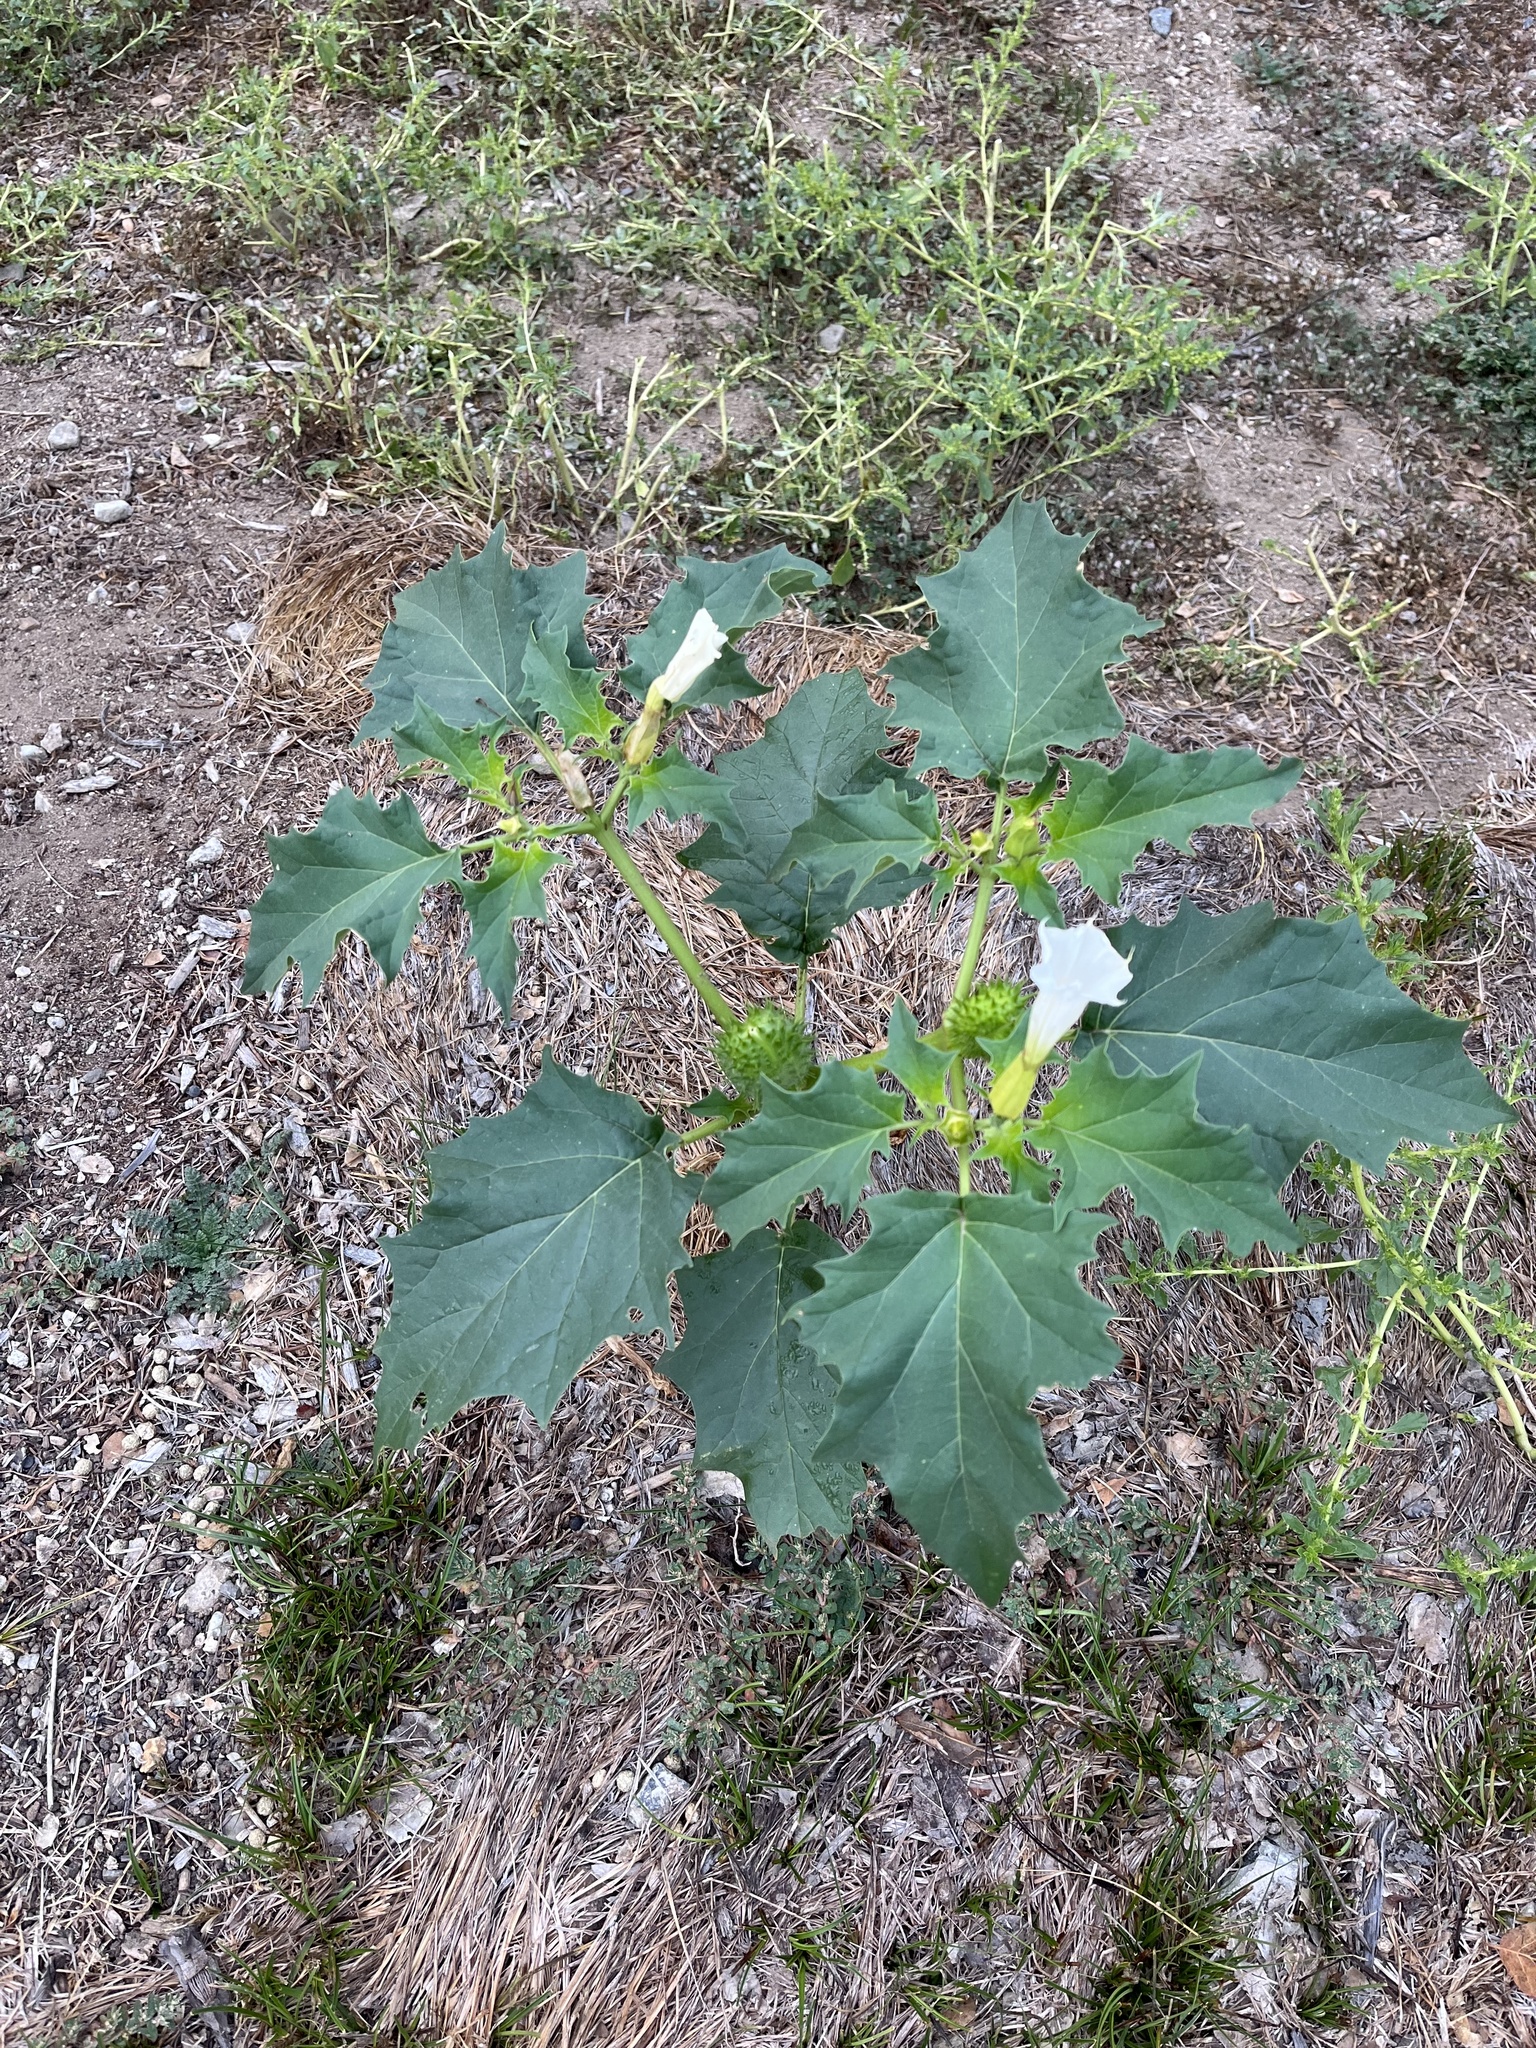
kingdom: Plantae
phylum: Tracheophyta
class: Magnoliopsida
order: Solanales
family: Solanaceae
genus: Datura
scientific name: Datura stramonium
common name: Thorn-apple
